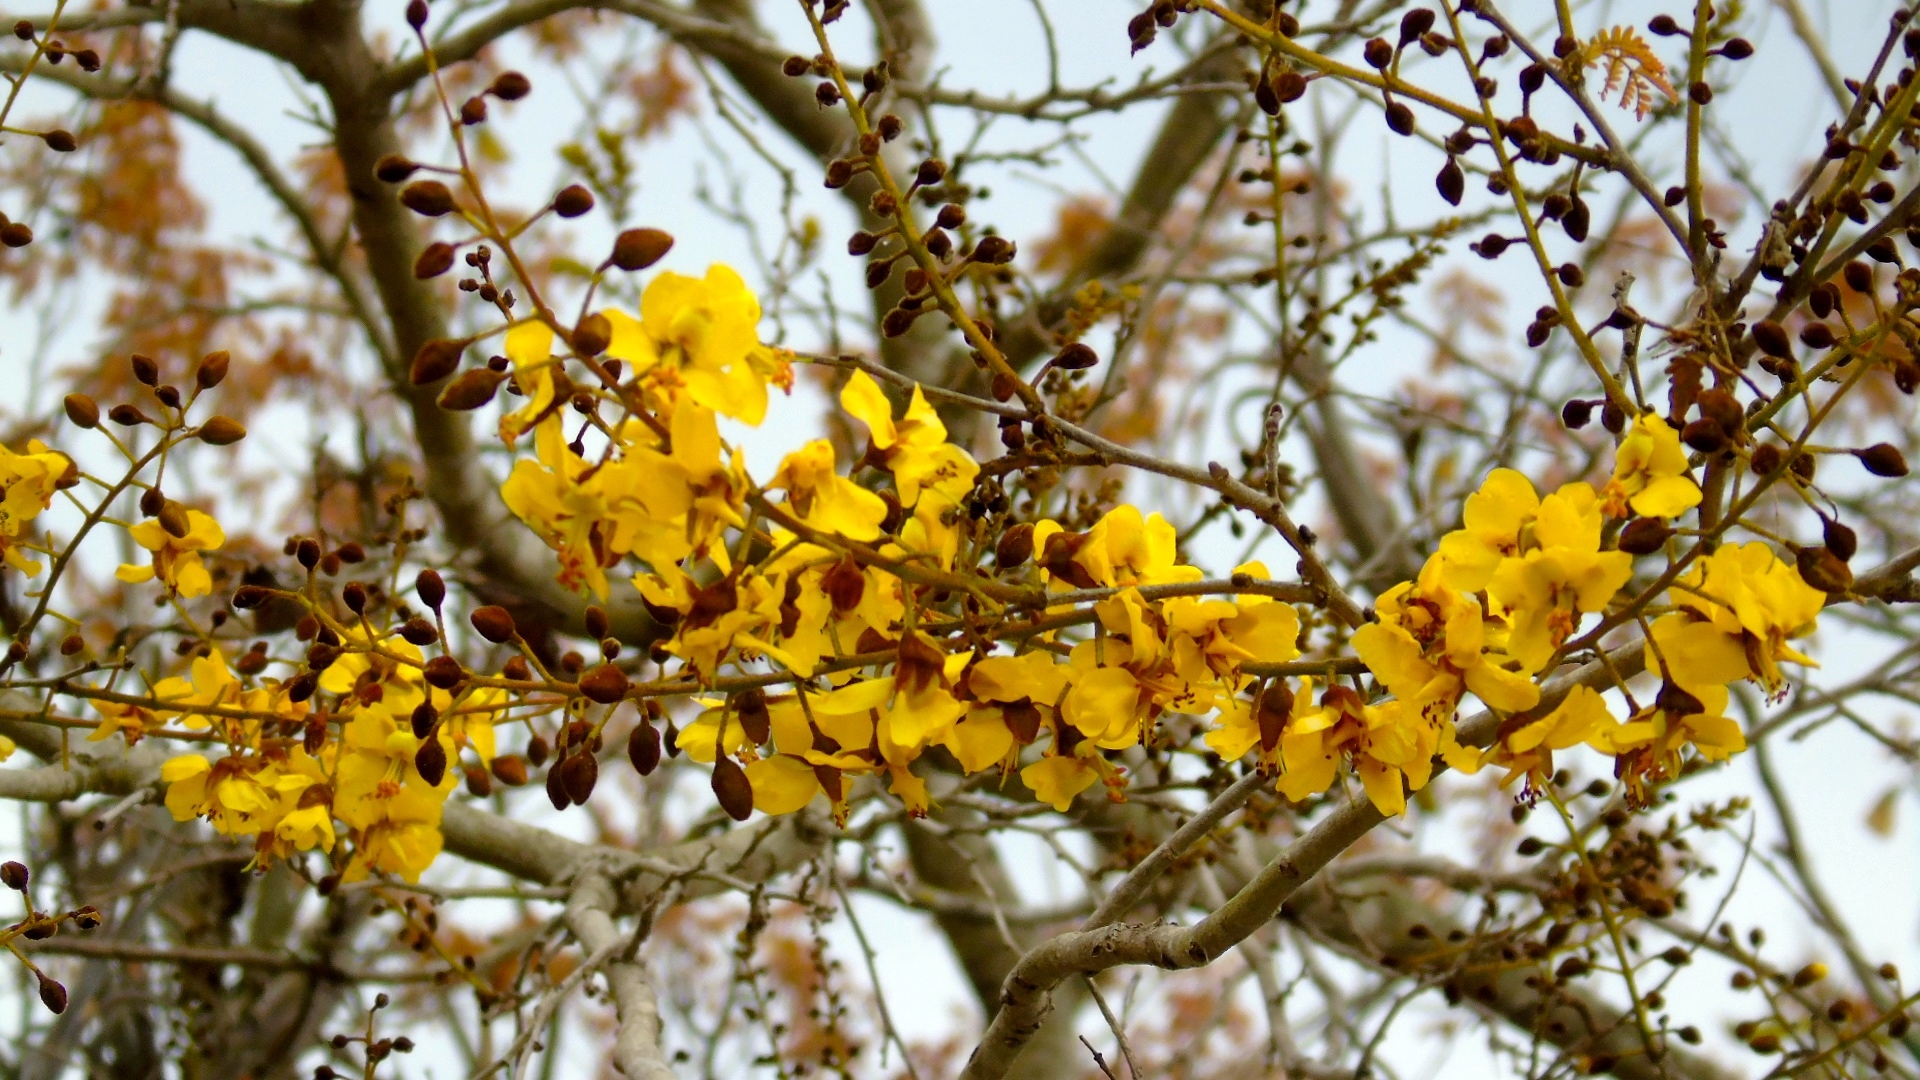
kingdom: Plantae
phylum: Tracheophyta
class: Magnoliopsida
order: Fabales
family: Fabaceae
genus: Cenostigma
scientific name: Cenostigma eriostachys
